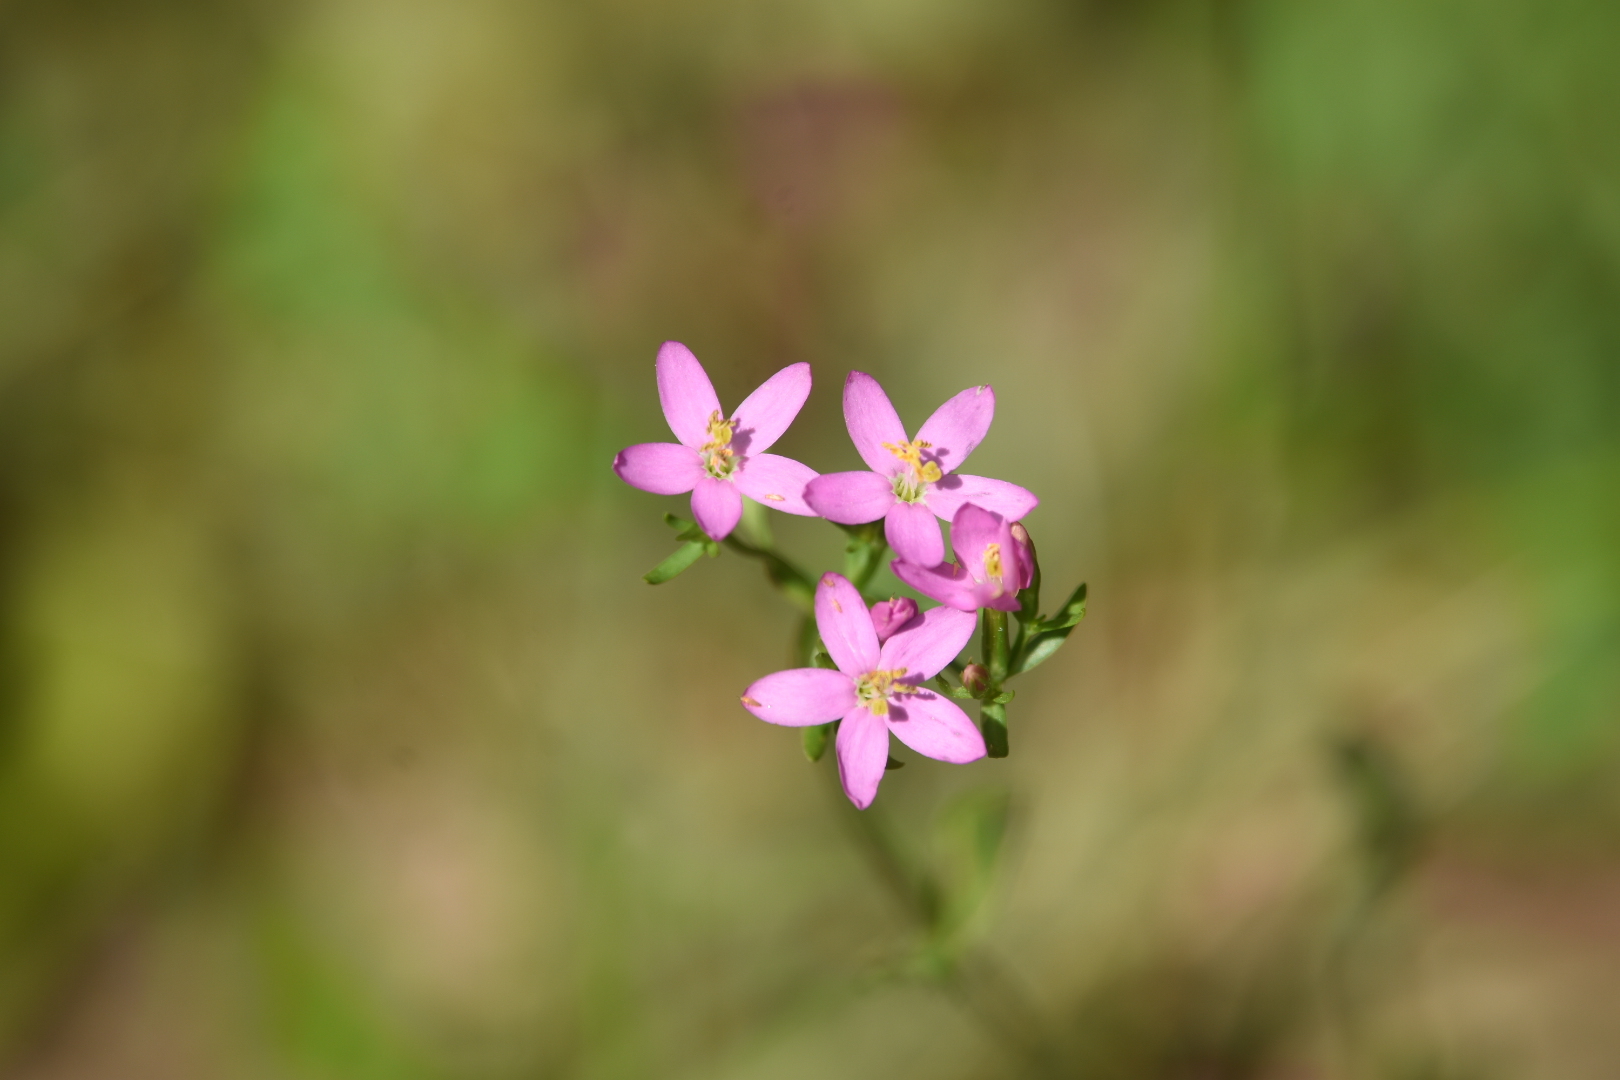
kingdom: Plantae
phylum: Tracheophyta
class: Magnoliopsida
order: Gentianales
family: Gentianaceae
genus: Centaurium
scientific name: Centaurium erythraea
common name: Common centaury
